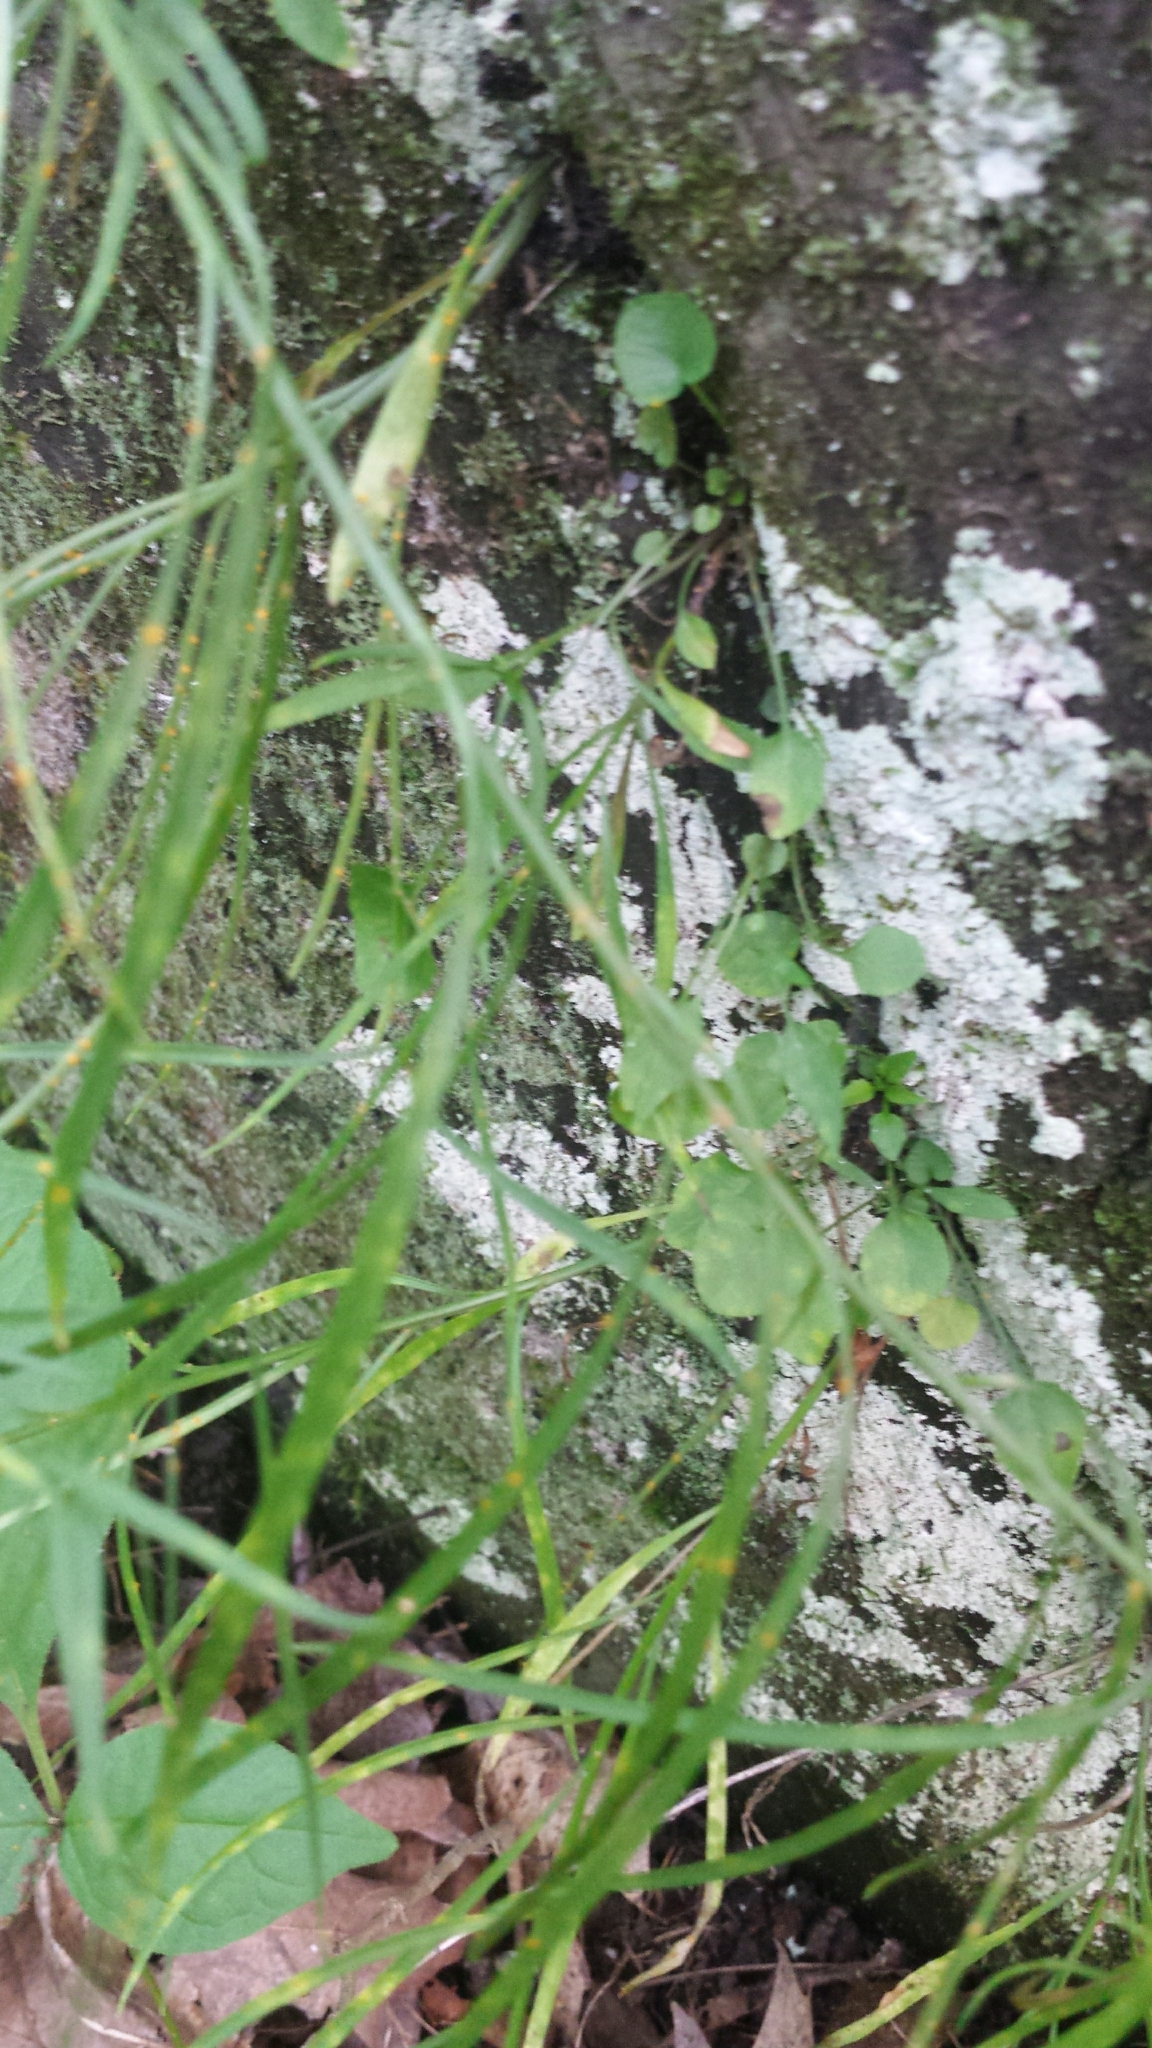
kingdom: Plantae
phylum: Tracheophyta
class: Magnoliopsida
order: Asterales
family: Campanulaceae
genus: Campanula
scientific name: Campanula intercedens
